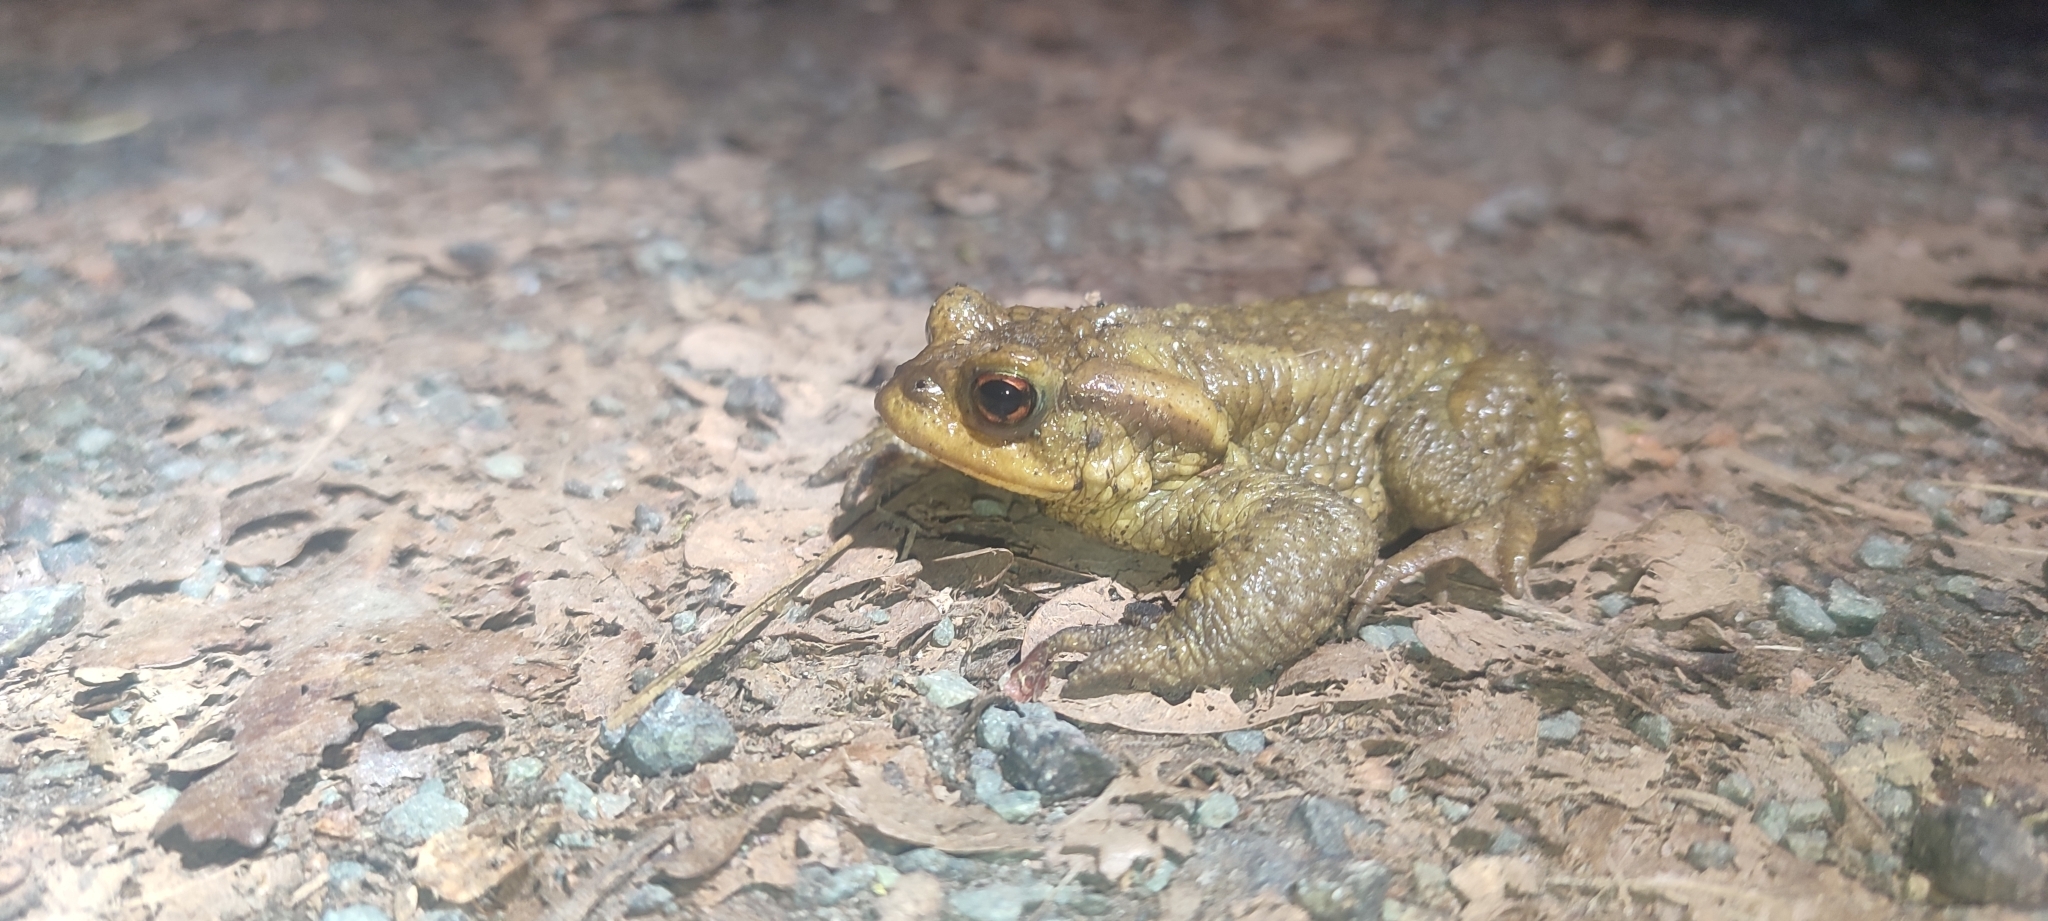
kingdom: Animalia
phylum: Chordata
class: Amphibia
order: Anura
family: Bufonidae
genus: Bufo
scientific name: Bufo spinosus
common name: Western common toad
